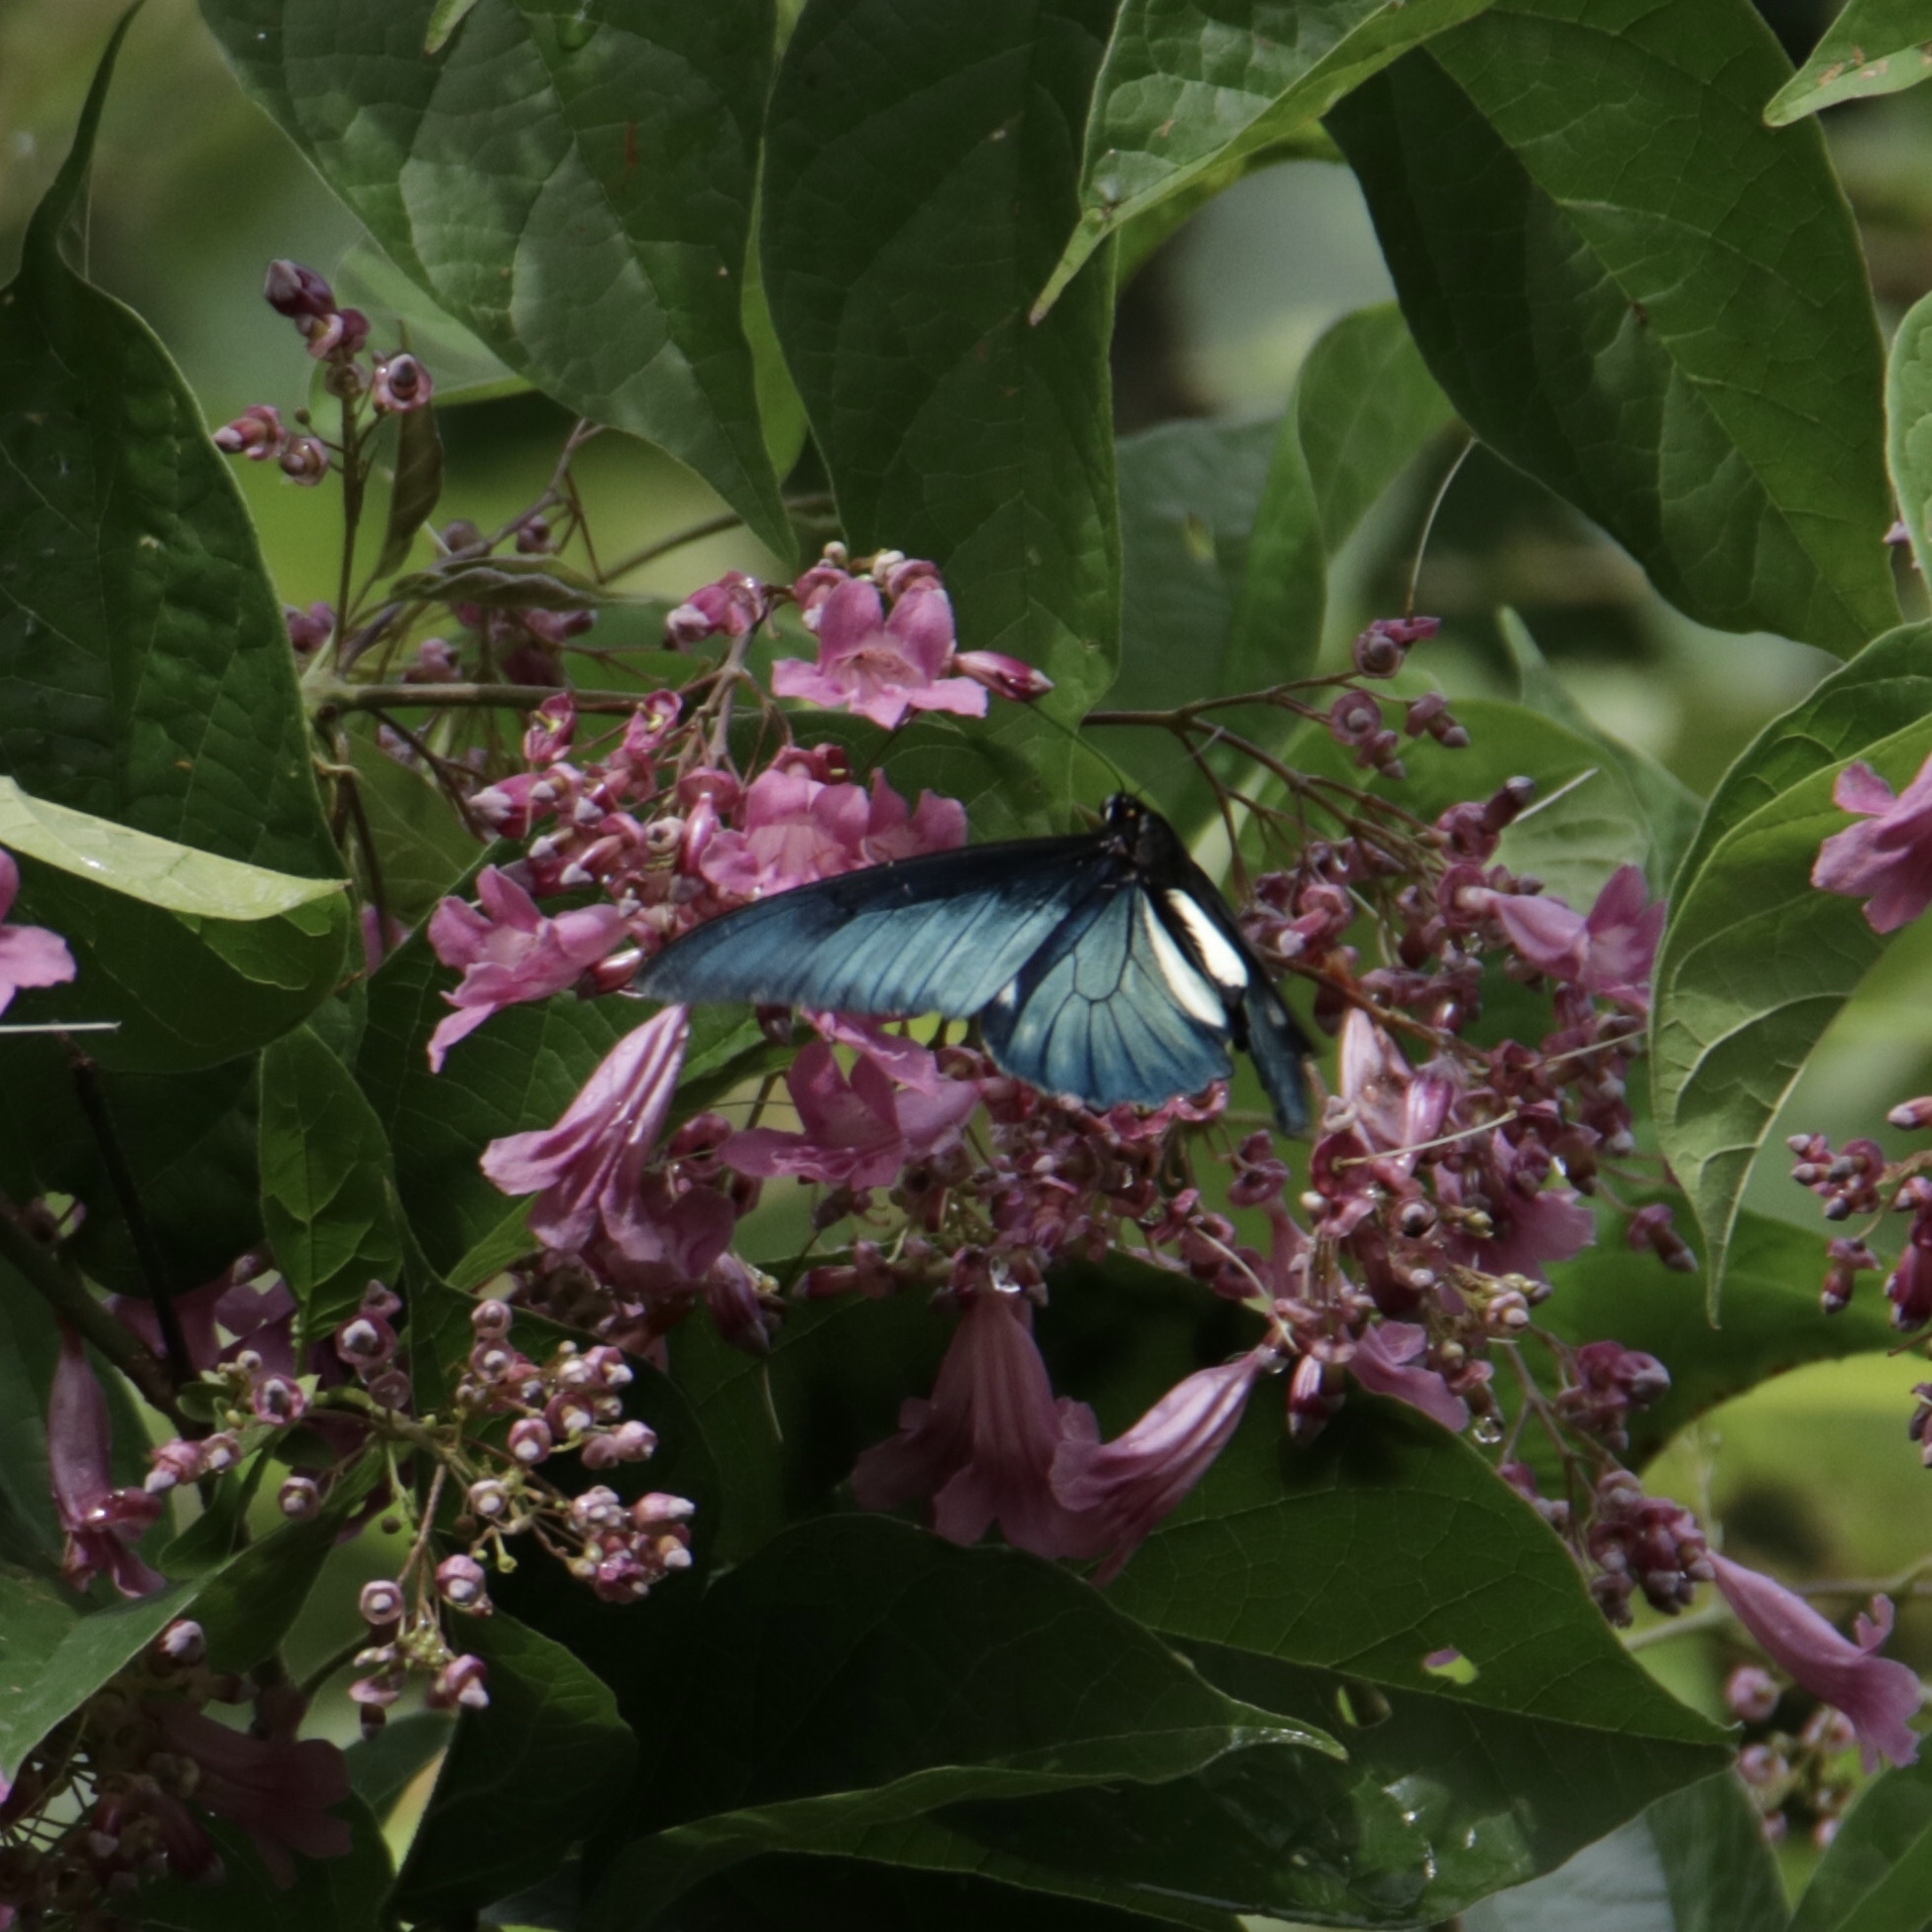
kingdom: Animalia
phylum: Arthropoda
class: Insecta
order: Lepidoptera
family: Papilionidae
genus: Battus
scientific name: Battus lycidas
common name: Cramer's swallowtail
